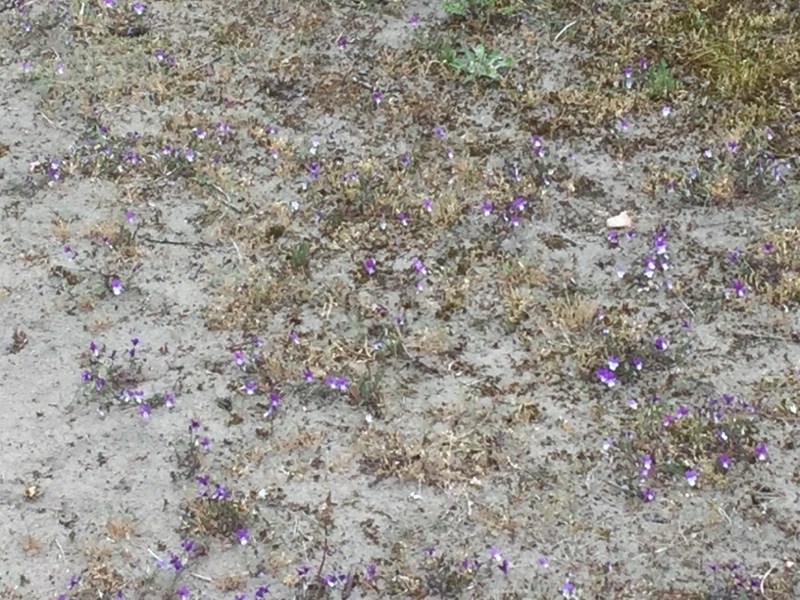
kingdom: Plantae
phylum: Tracheophyta
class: Magnoliopsida
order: Malpighiales
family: Violaceae
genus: Viola
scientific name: Viola tricolor
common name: Pansy
